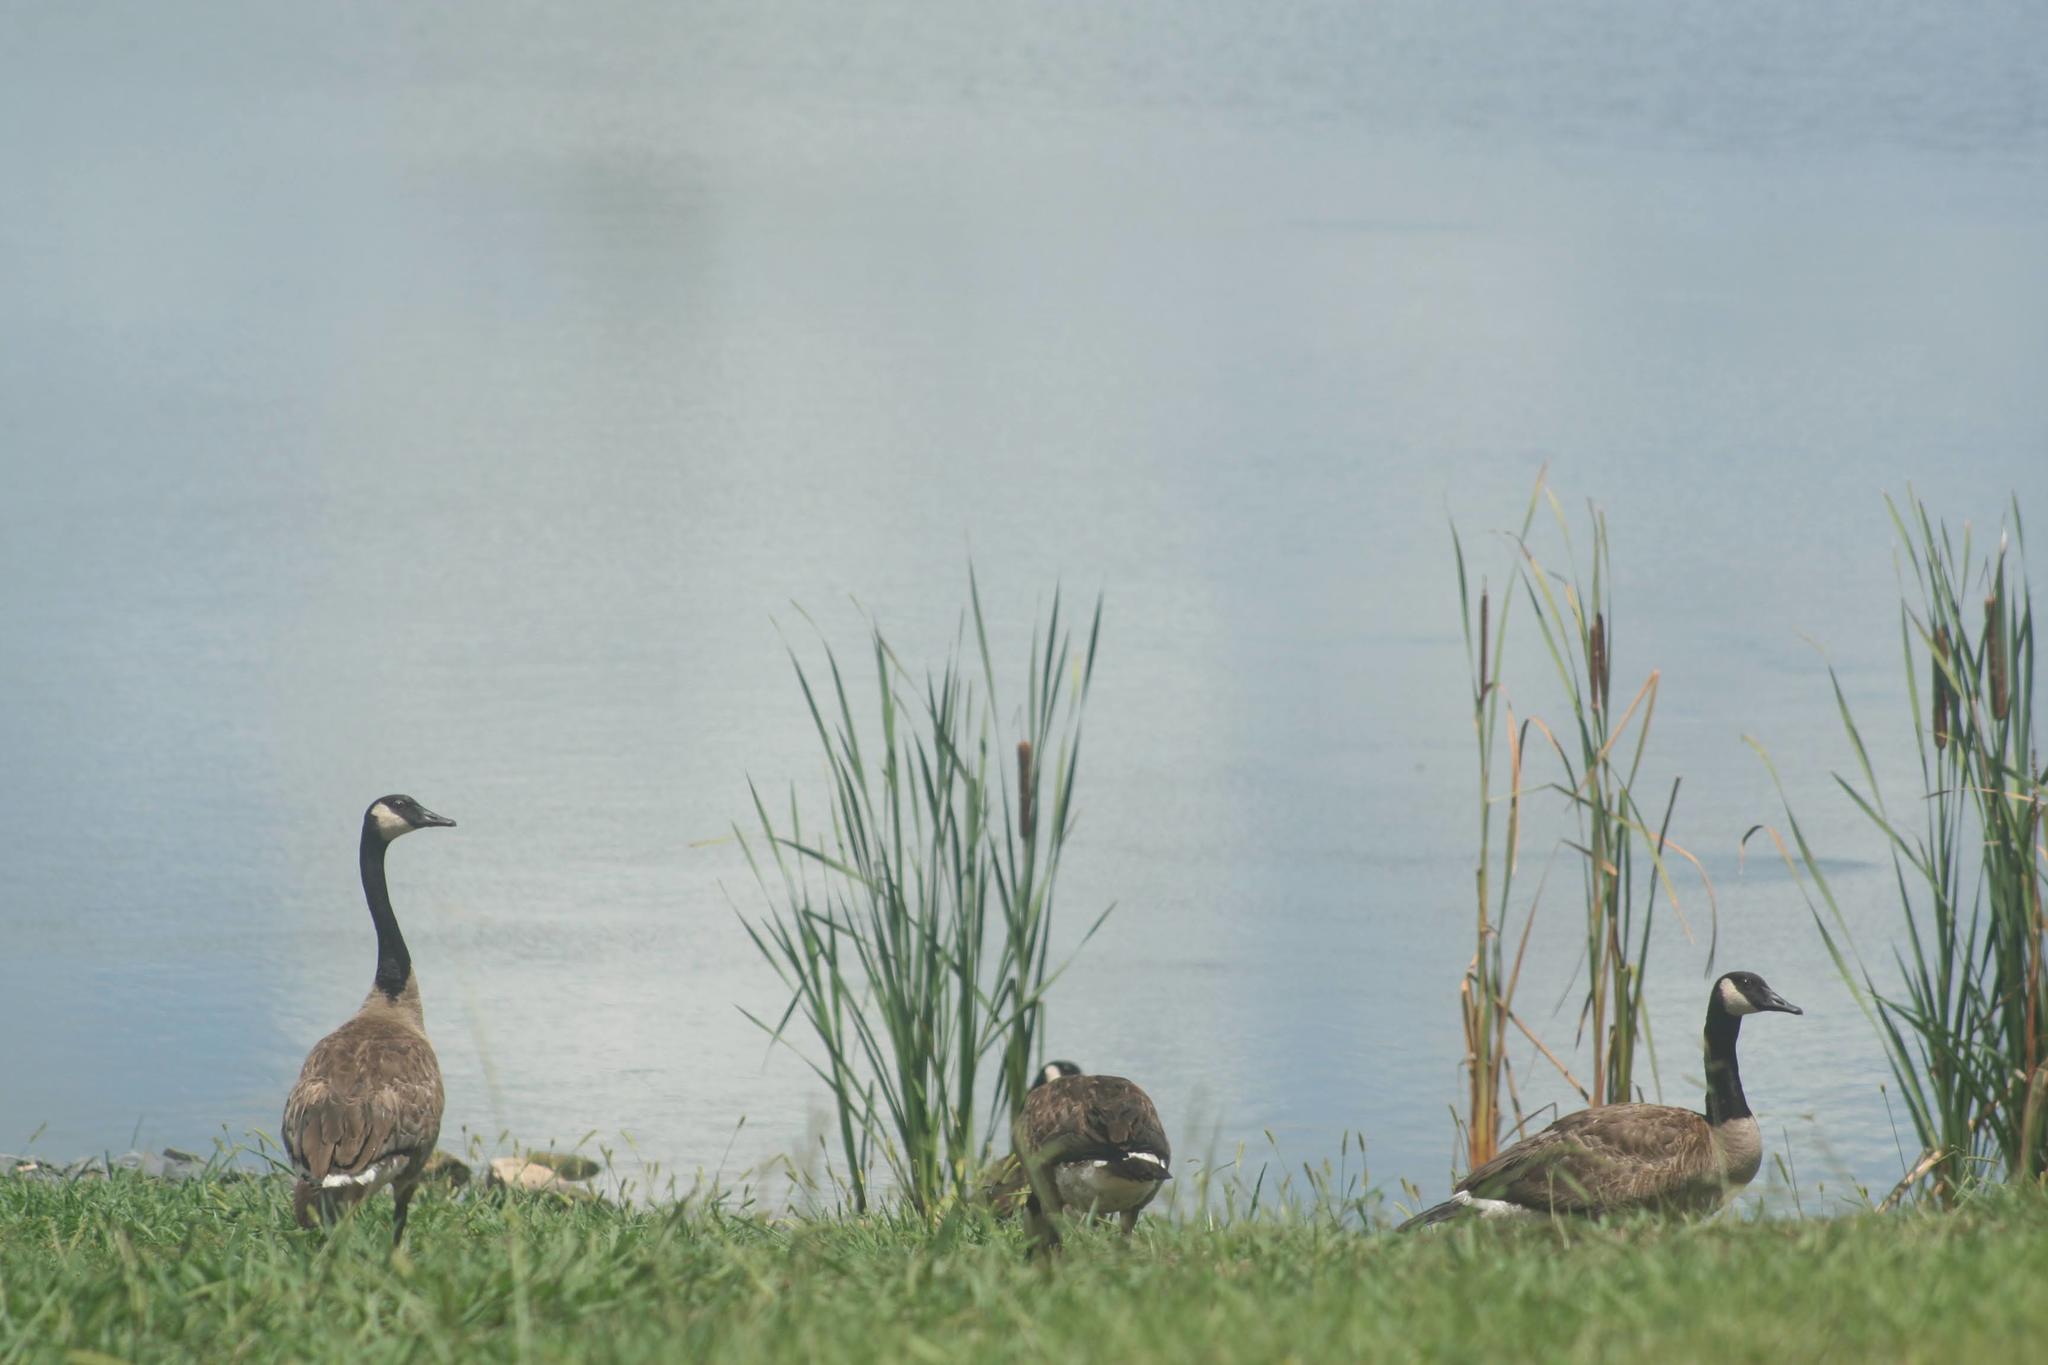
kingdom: Animalia
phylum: Chordata
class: Aves
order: Anseriformes
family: Anatidae
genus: Branta
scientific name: Branta canadensis
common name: Canada goose
